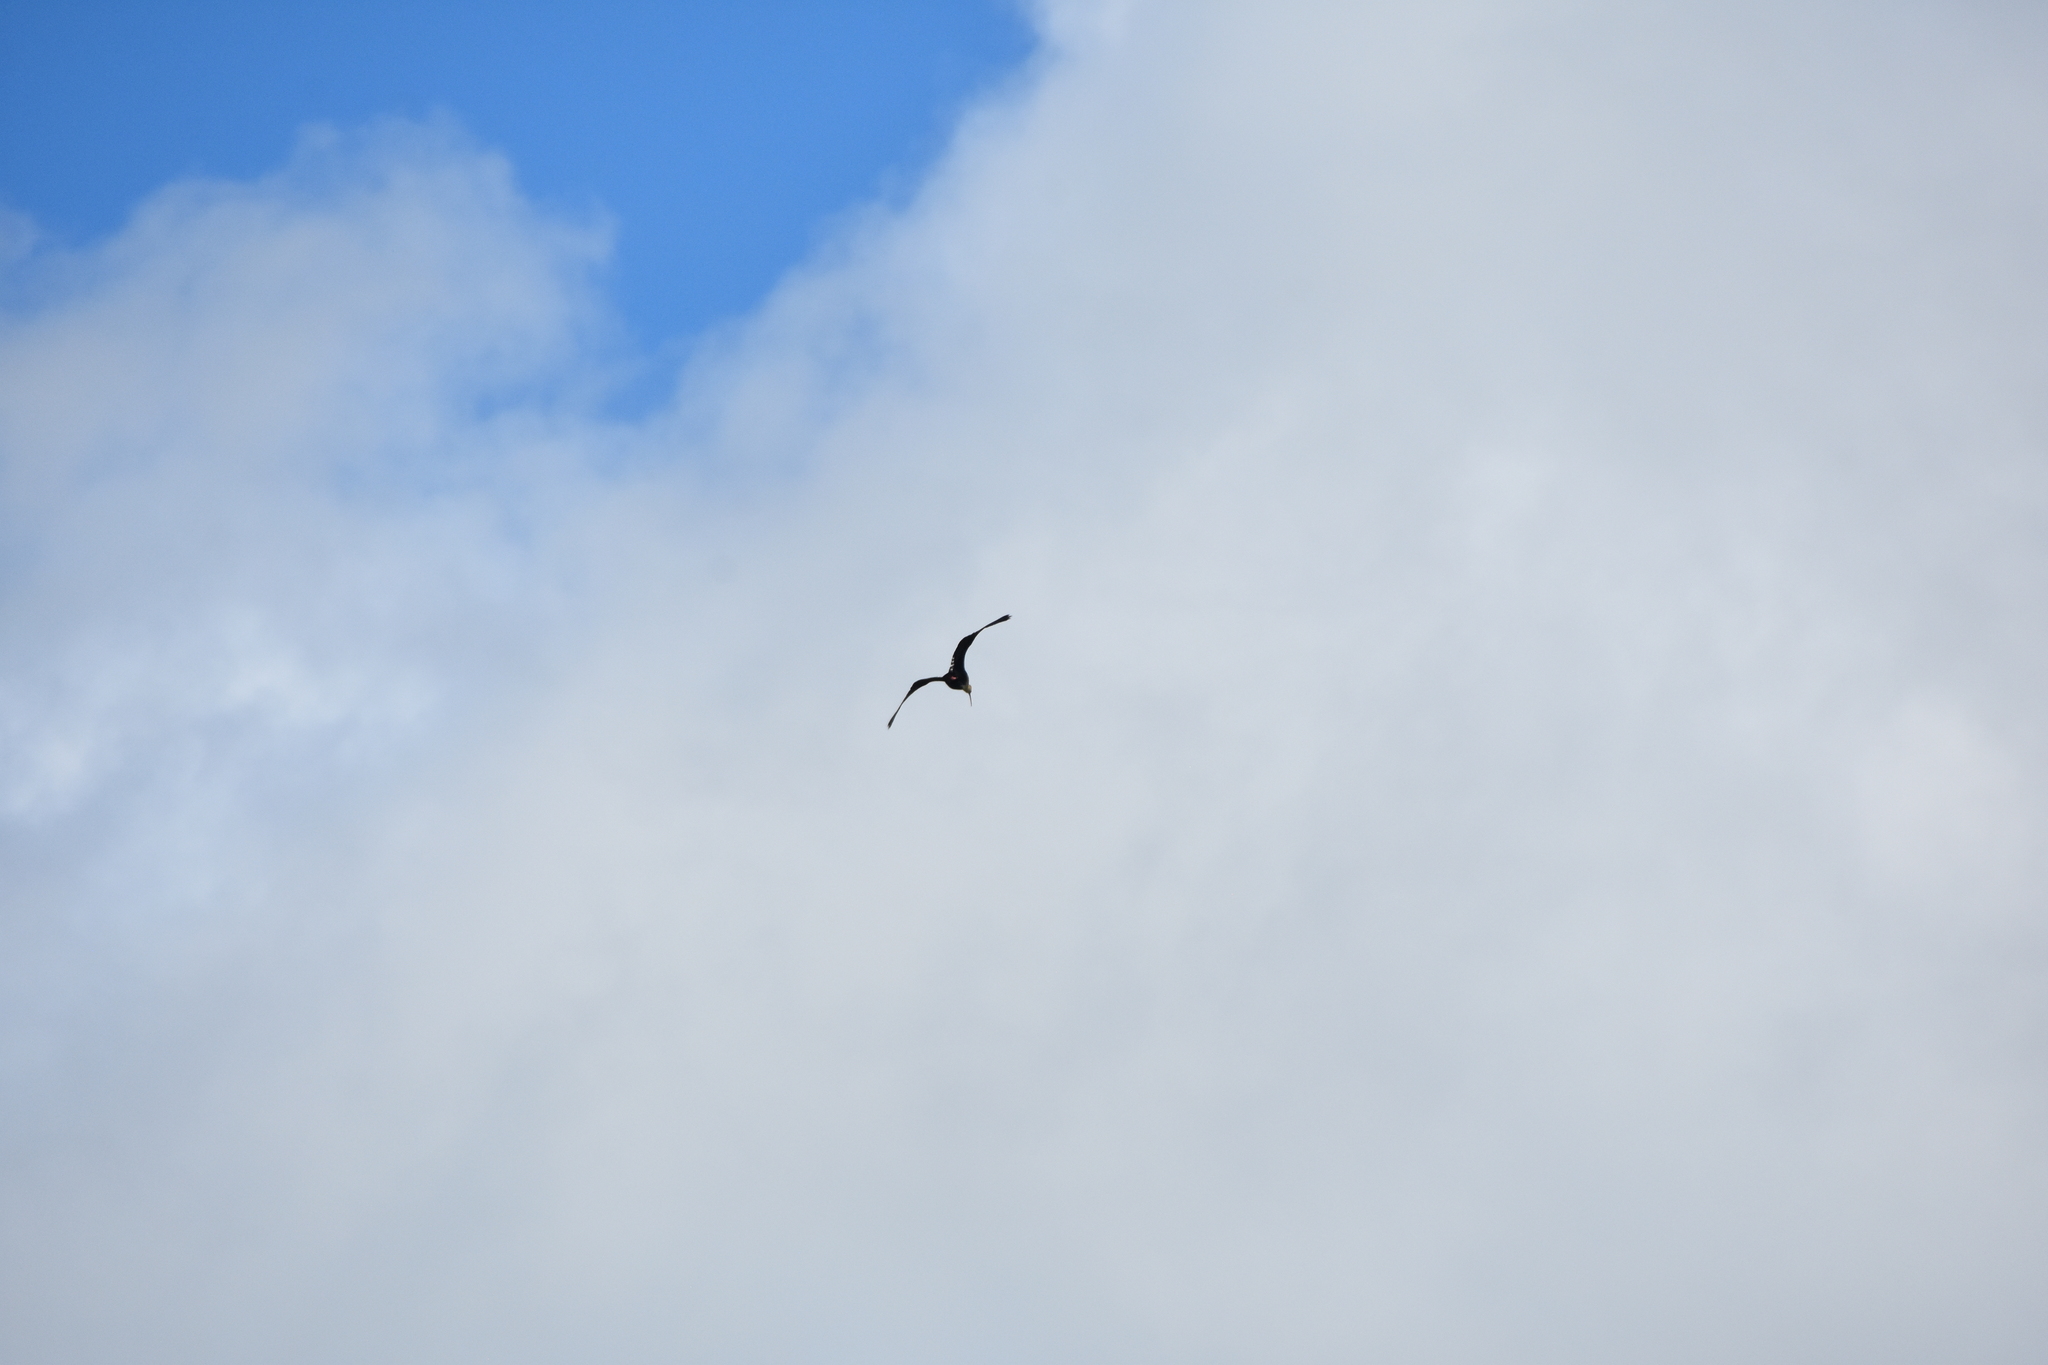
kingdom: Animalia
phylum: Chordata
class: Aves
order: Pelecaniformes
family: Threskiornithidae
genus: Theristicus
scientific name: Theristicus melanopis
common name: Black-faced ibis
